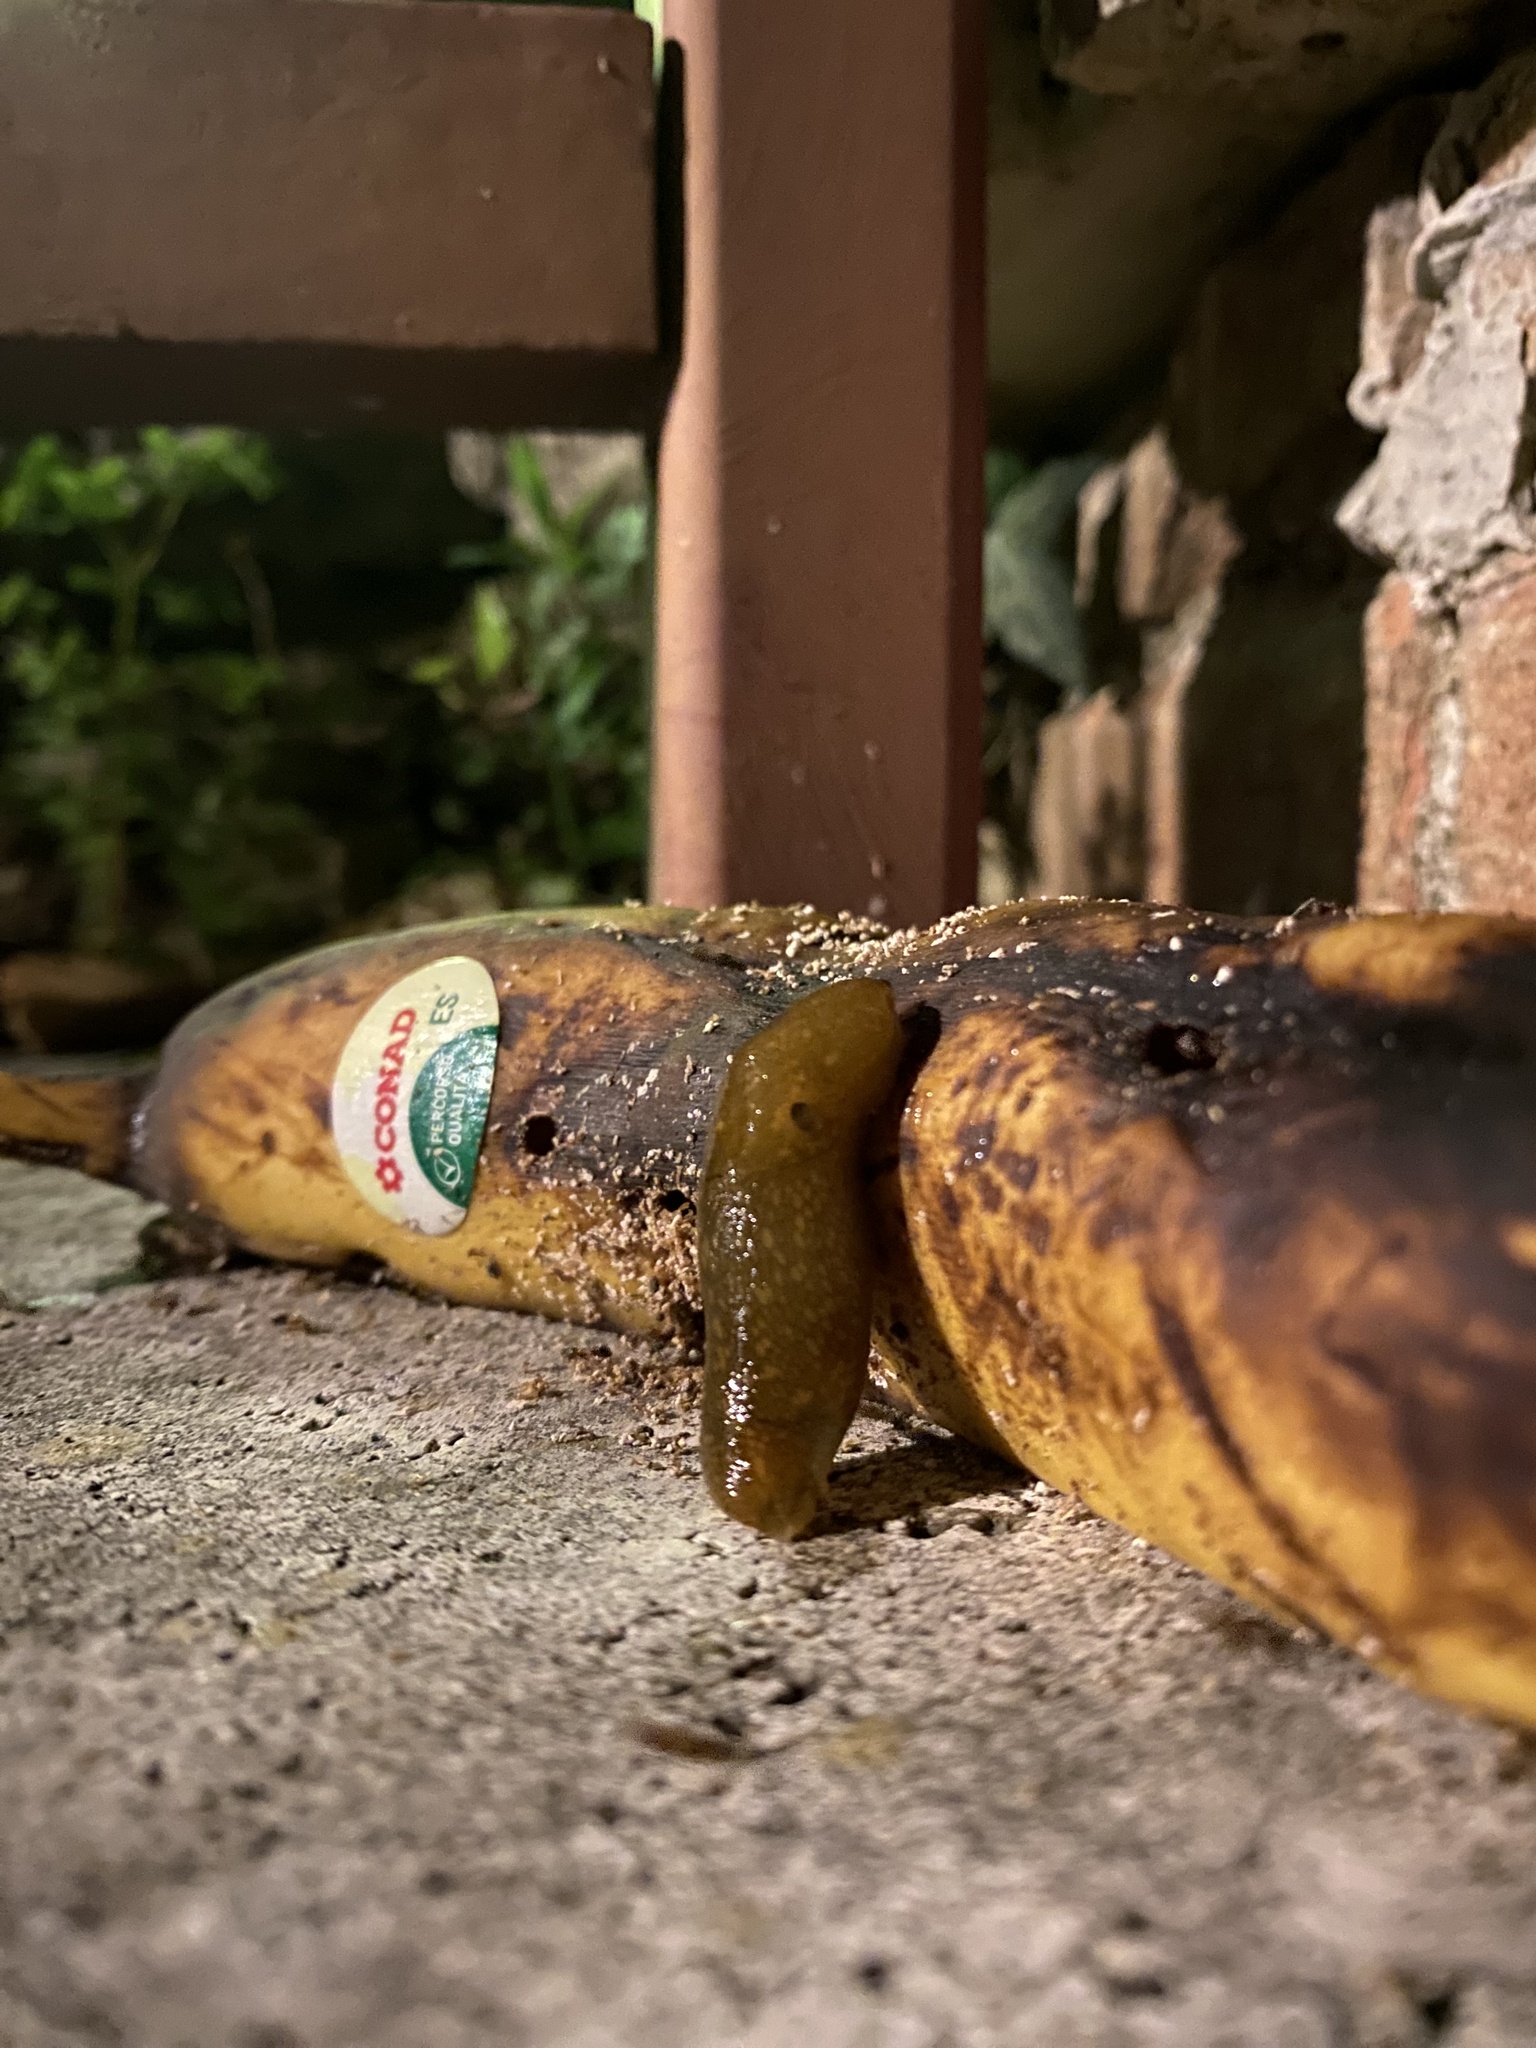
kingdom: Animalia
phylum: Mollusca
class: Gastropoda
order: Stylommatophora
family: Limacidae
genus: Limacus
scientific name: Limacus flavus
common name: Yellow gardenslug
